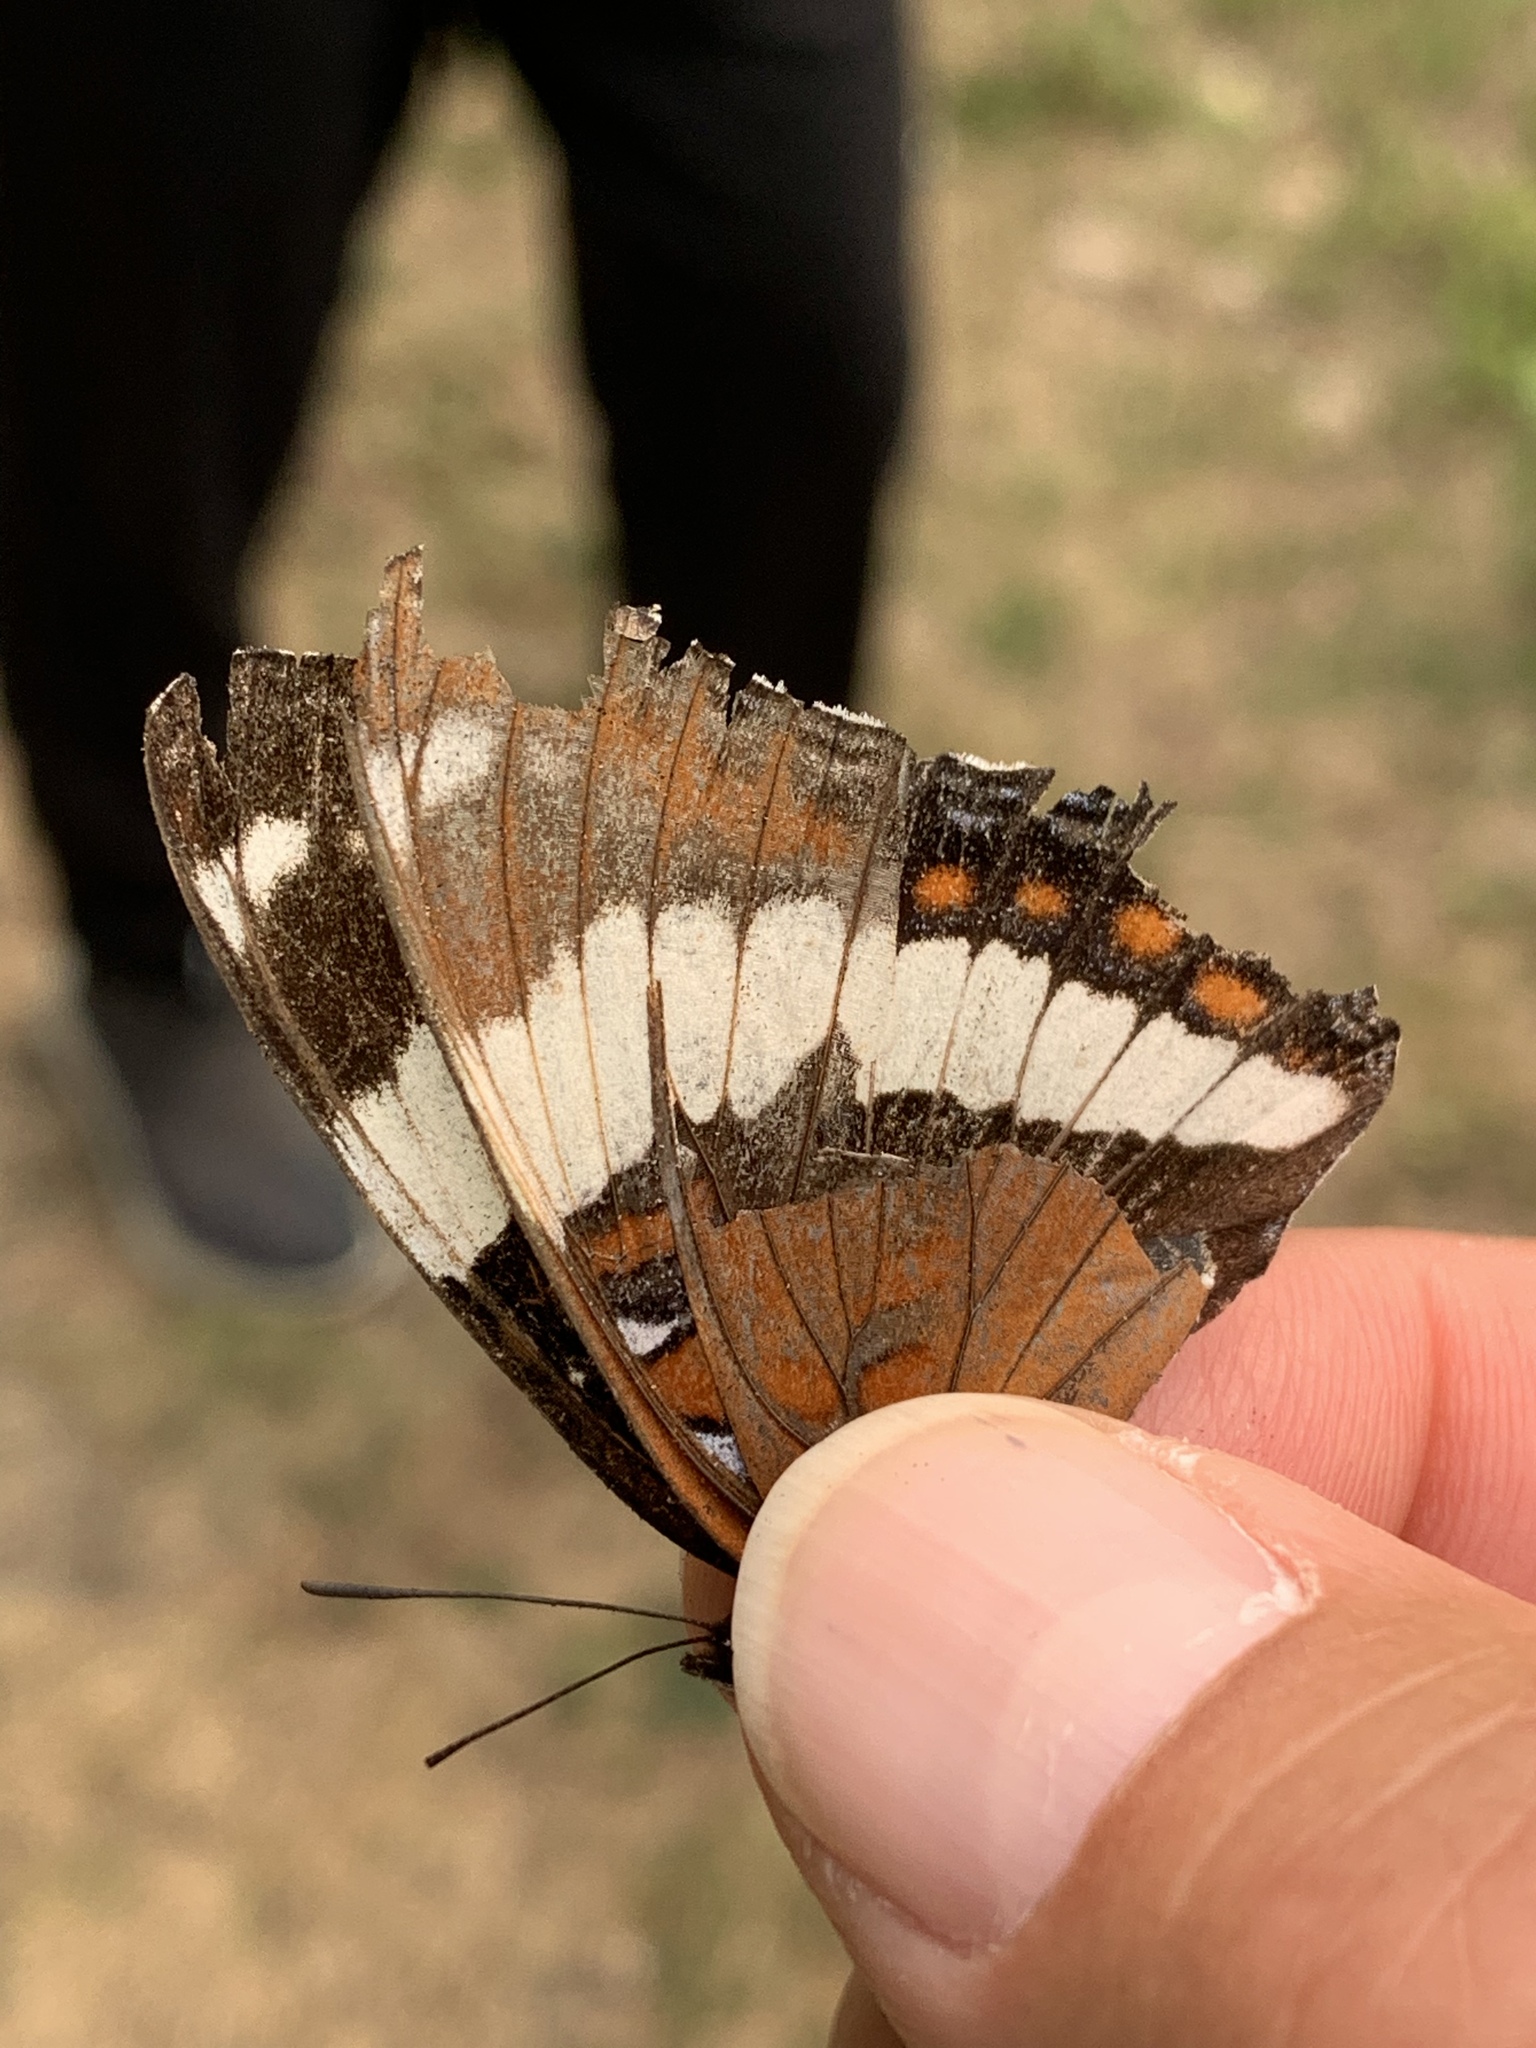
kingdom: Animalia
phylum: Arthropoda
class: Insecta
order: Lepidoptera
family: Nymphalidae
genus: Limenitis
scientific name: Limenitis arthemis
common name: Red-spotted admiral
